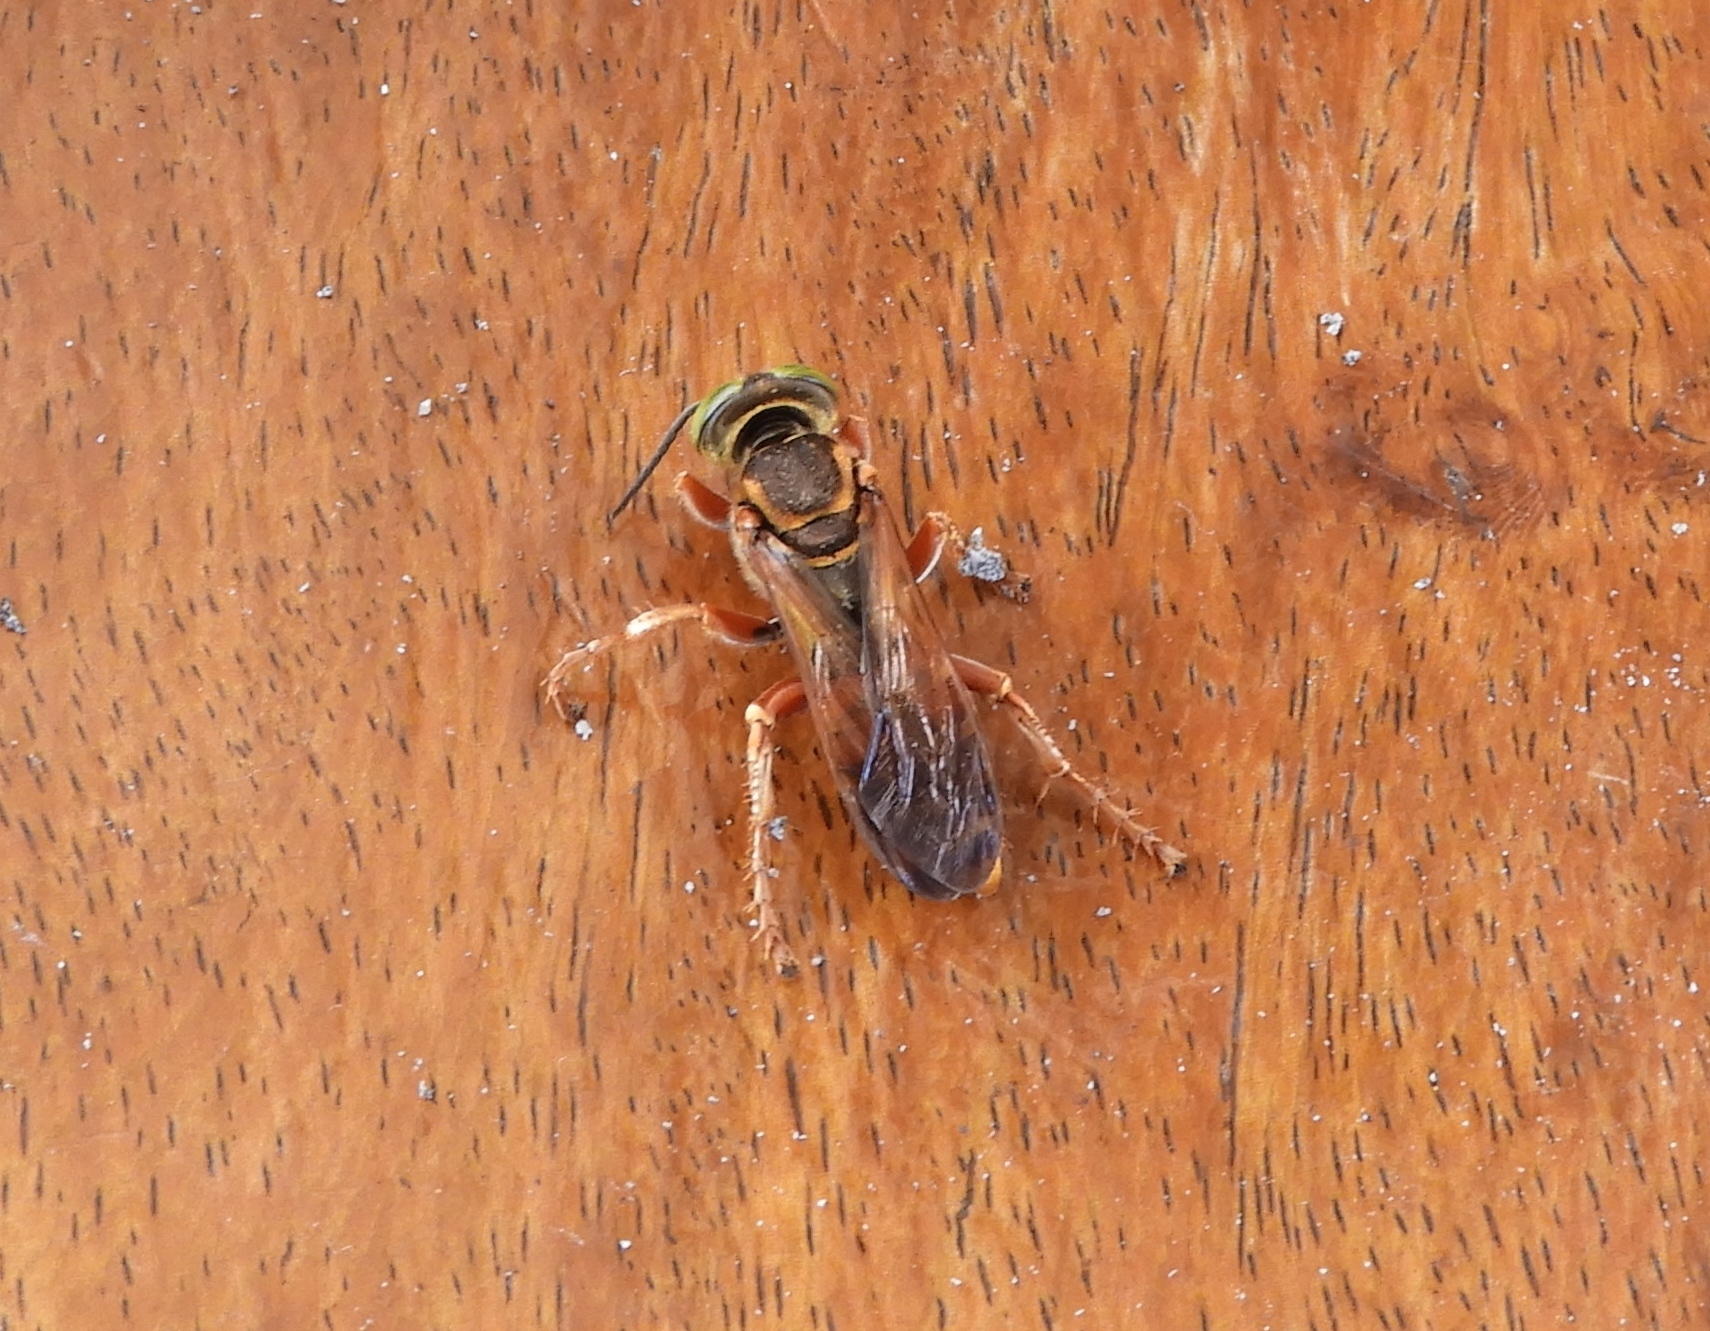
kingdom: Animalia
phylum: Arthropoda
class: Insecta
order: Hymenoptera
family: Crabronidae
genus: Tachytes
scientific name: Tachytes
